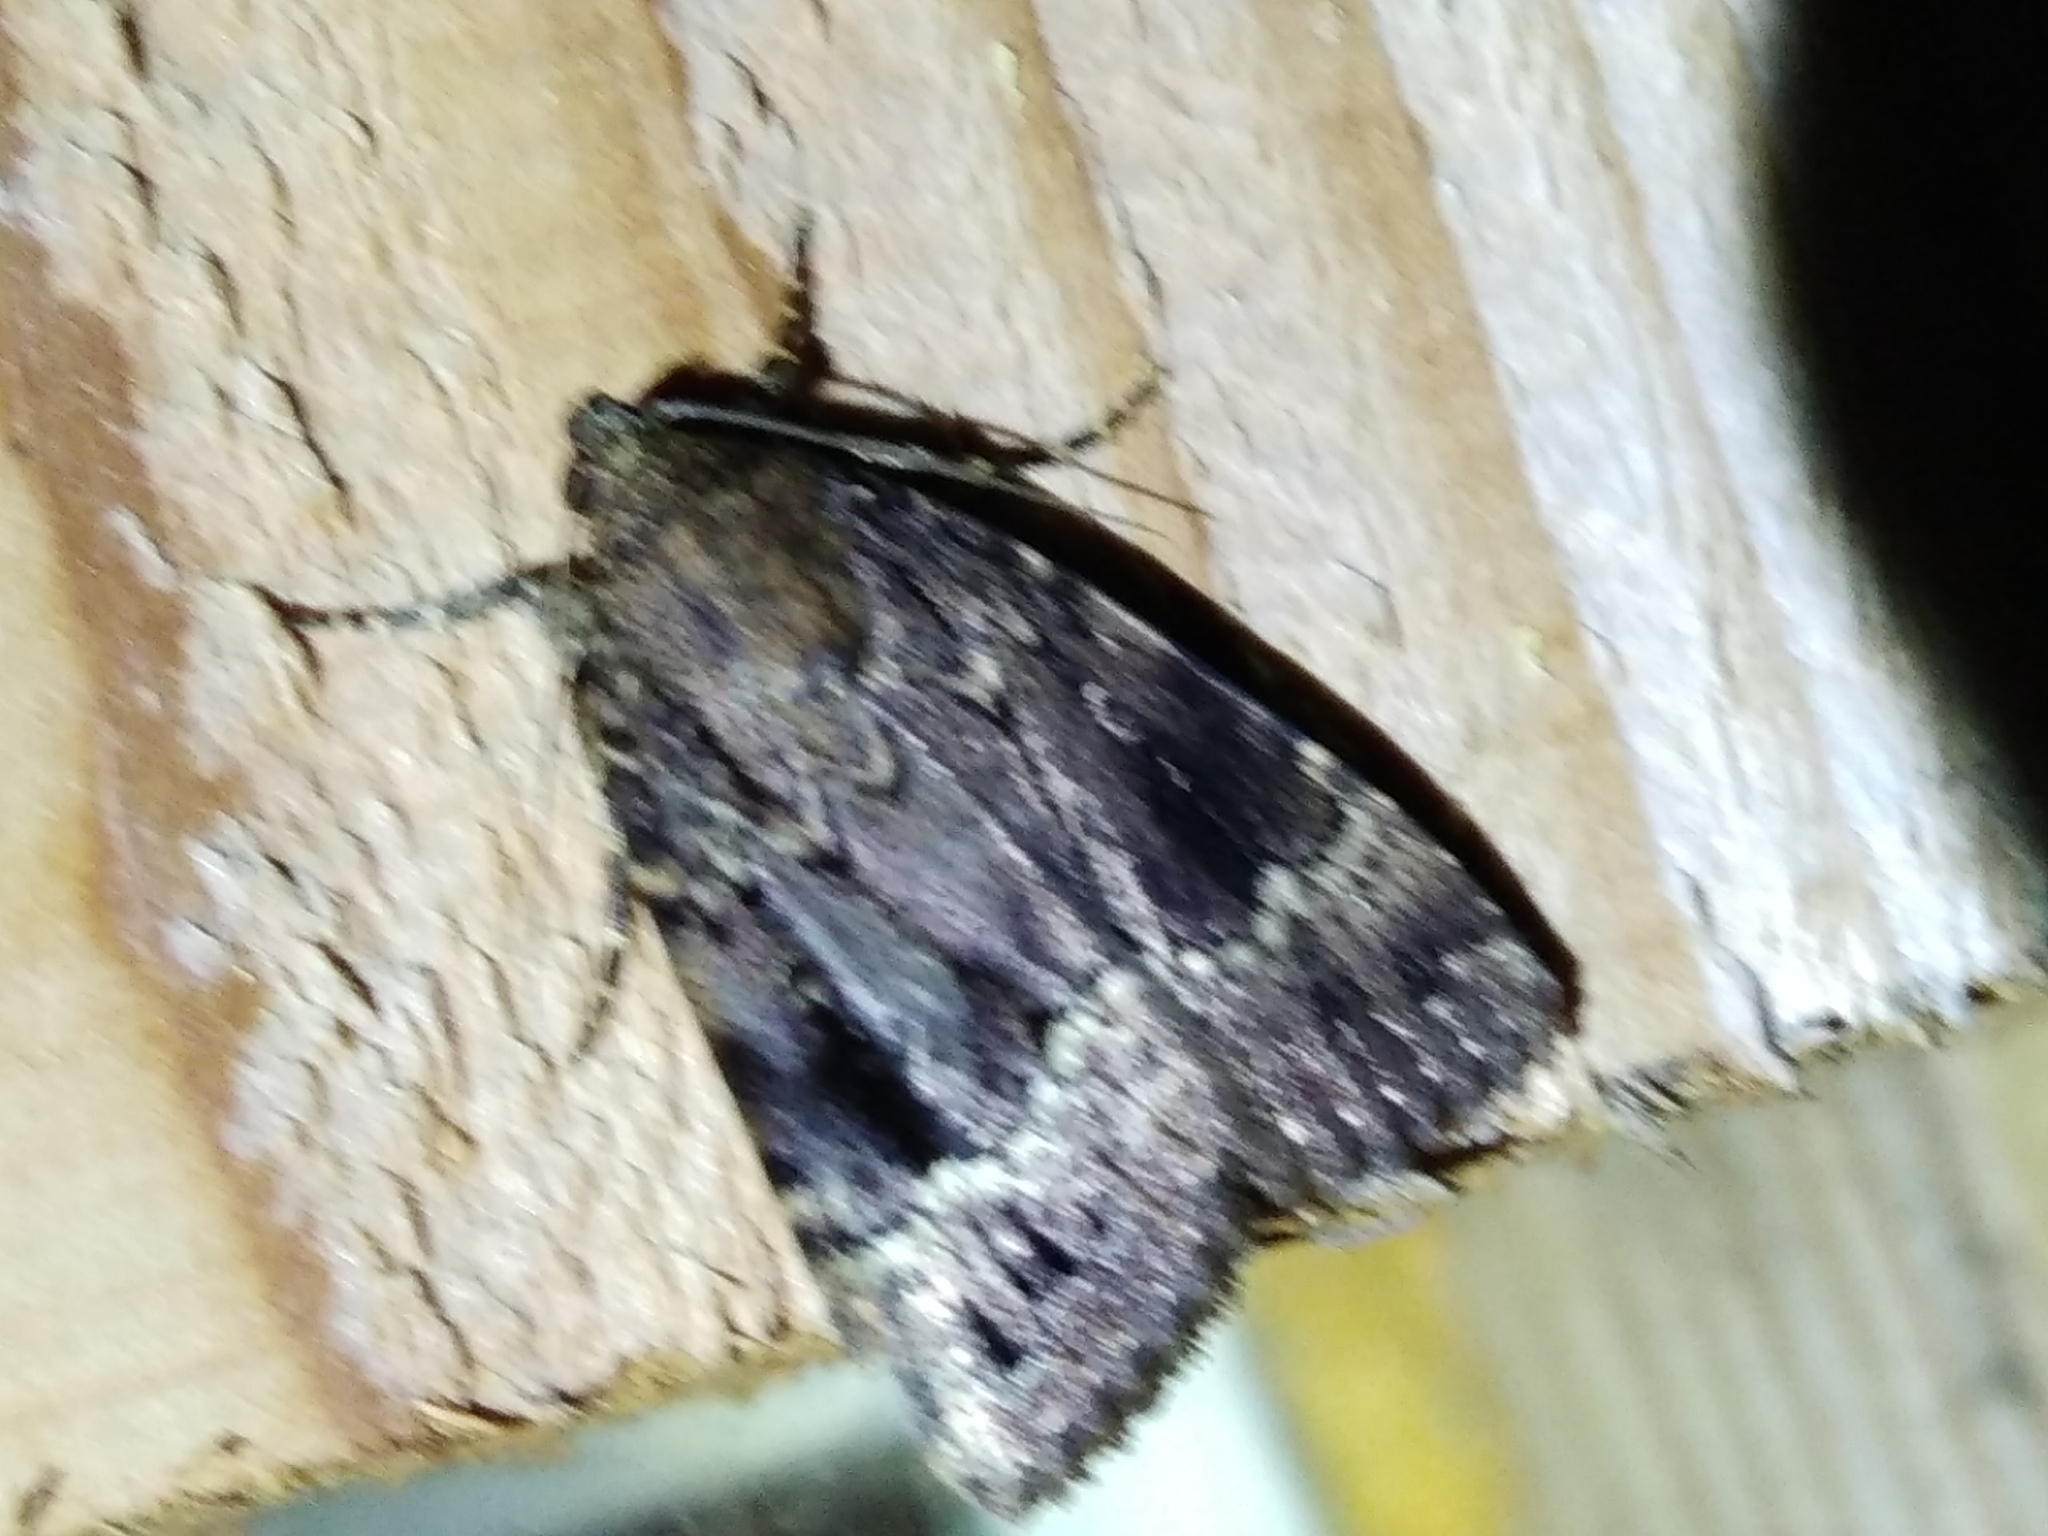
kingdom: Animalia
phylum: Arthropoda
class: Insecta
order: Lepidoptera
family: Noctuidae
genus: Amphipyra
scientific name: Amphipyra pyramidea
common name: Copper underwing
